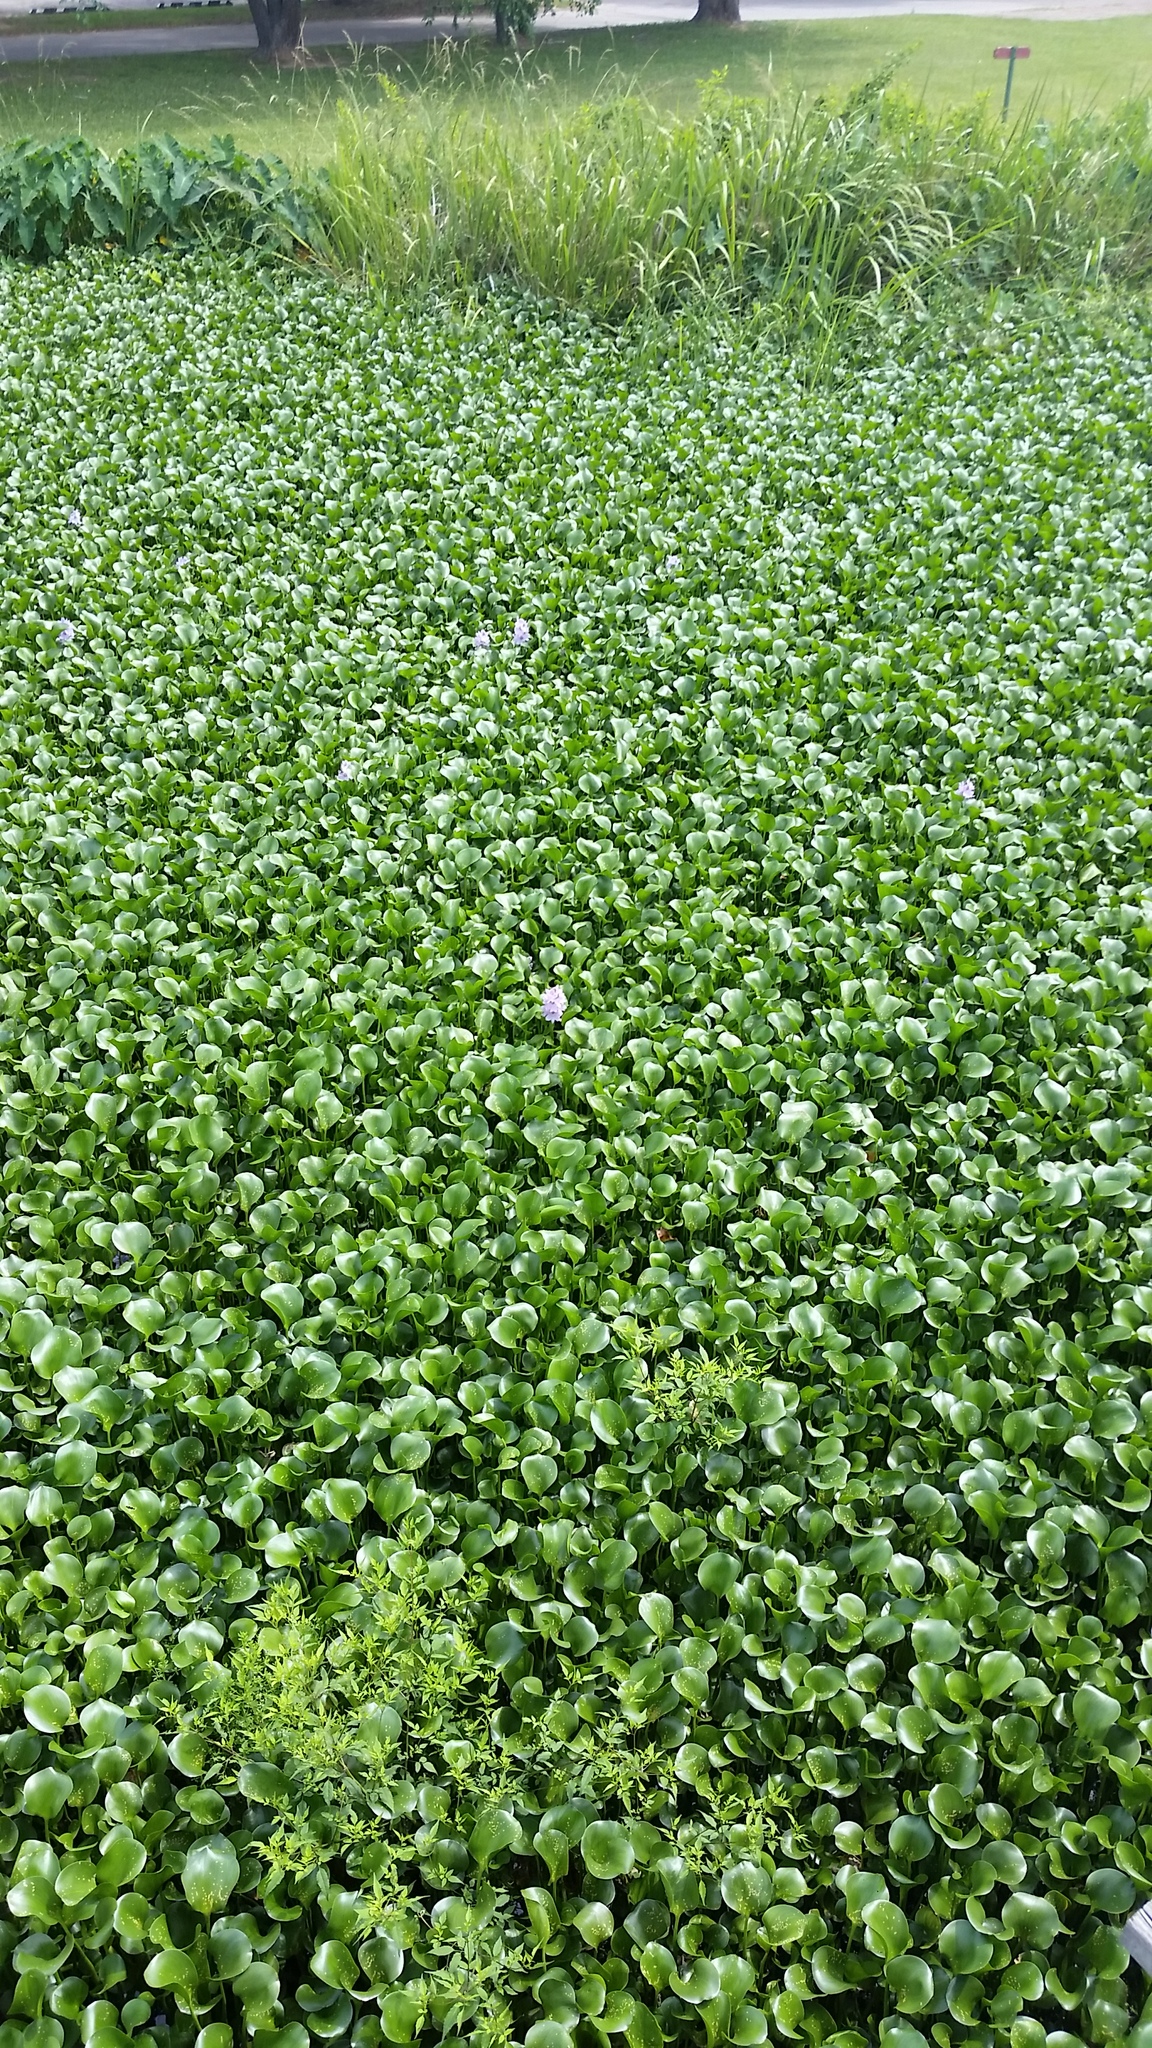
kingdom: Plantae
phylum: Tracheophyta
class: Liliopsida
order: Commelinales
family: Pontederiaceae
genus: Pontederia
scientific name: Pontederia crassipes
